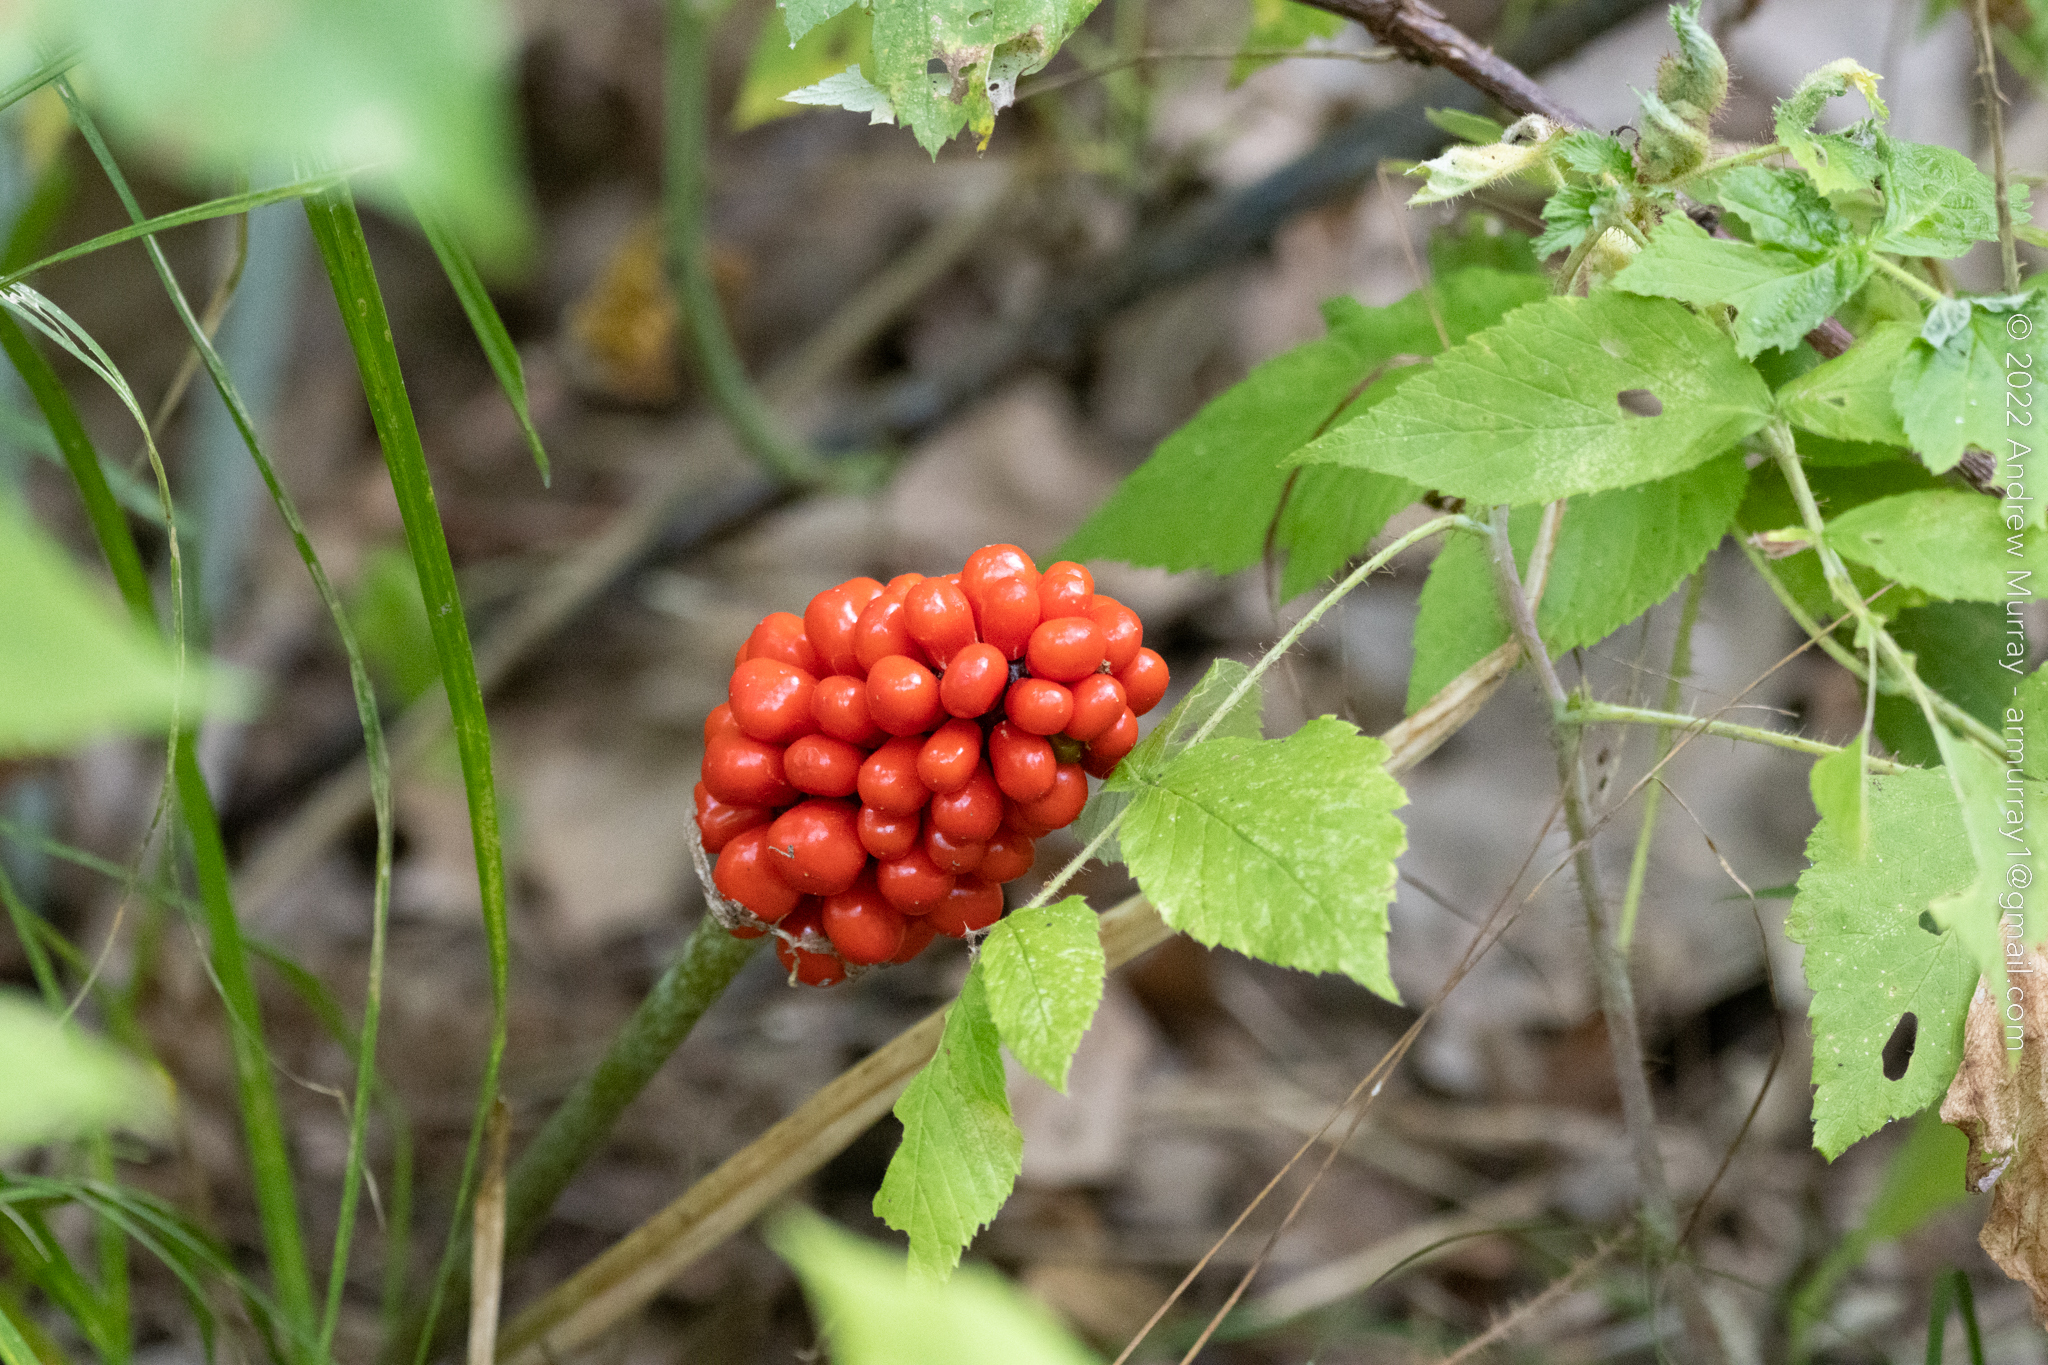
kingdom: Plantae
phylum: Tracheophyta
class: Liliopsida
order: Alismatales
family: Araceae
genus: Arisaema
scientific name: Arisaema triphyllum
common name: Jack-in-the-pulpit
